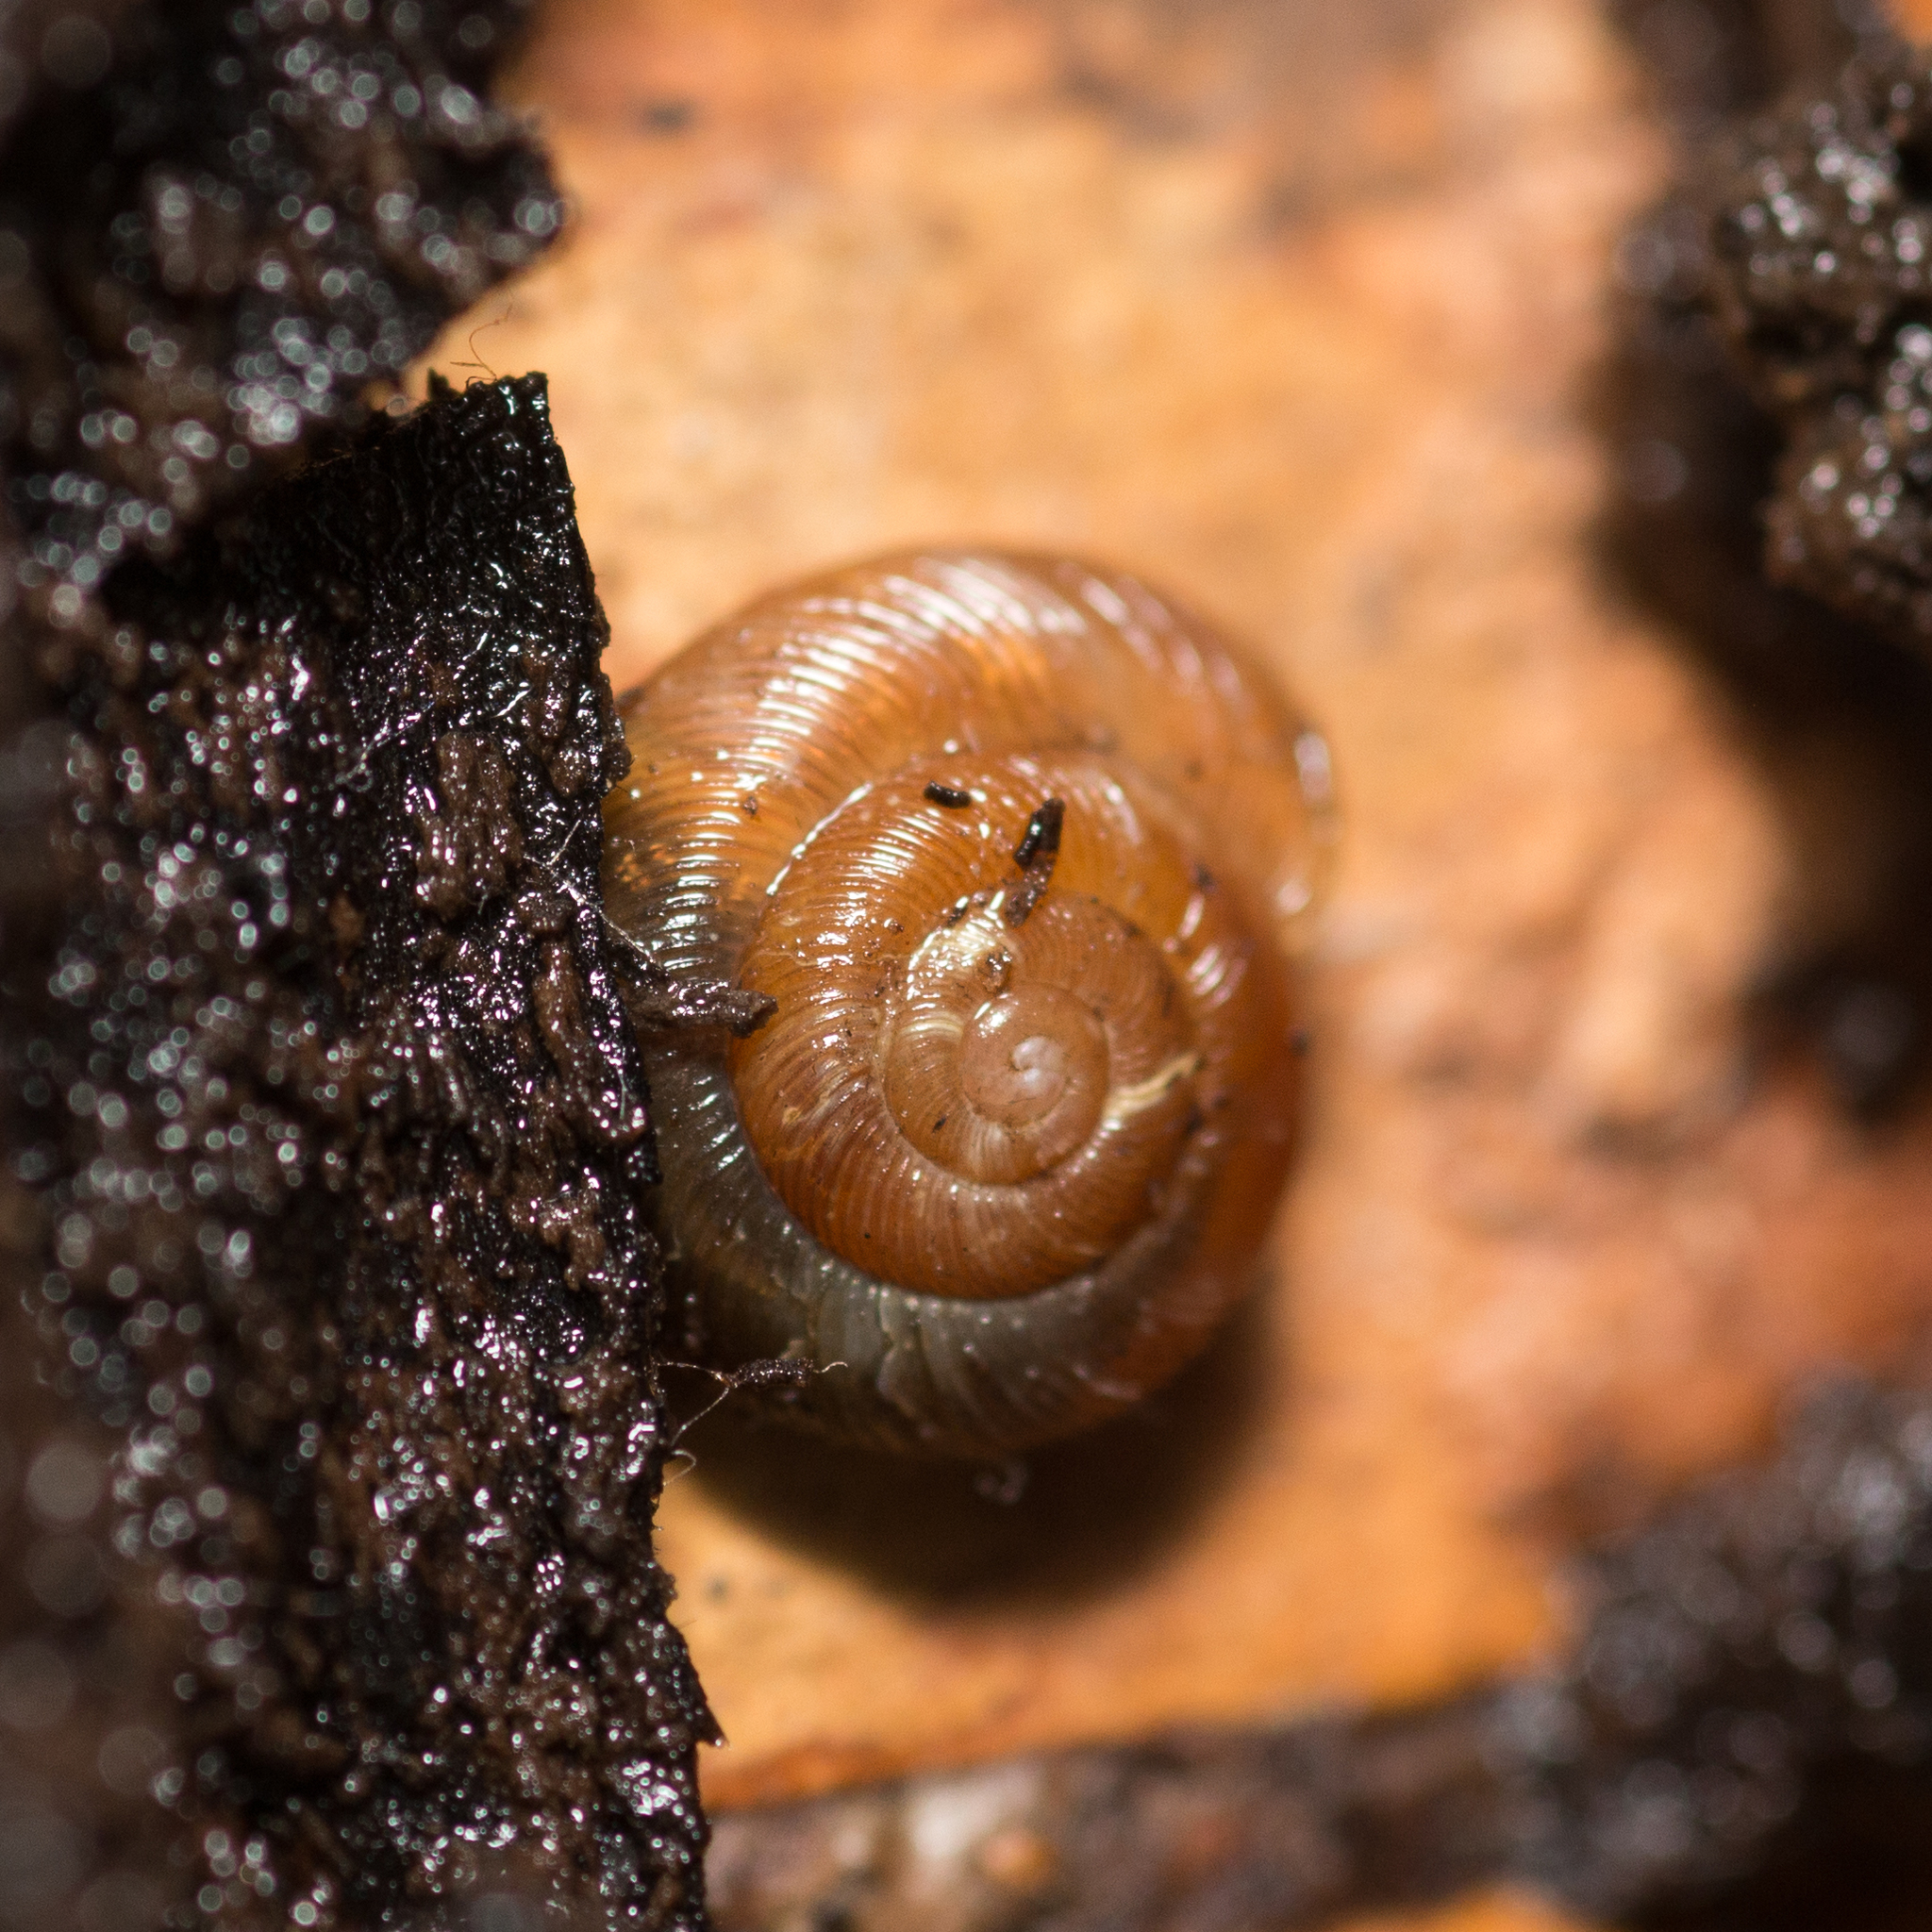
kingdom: Animalia
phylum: Mollusca
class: Gastropoda
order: Stylommatophora
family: Discidae
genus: Discus
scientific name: Discus ruderatus
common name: Brown disc snail
